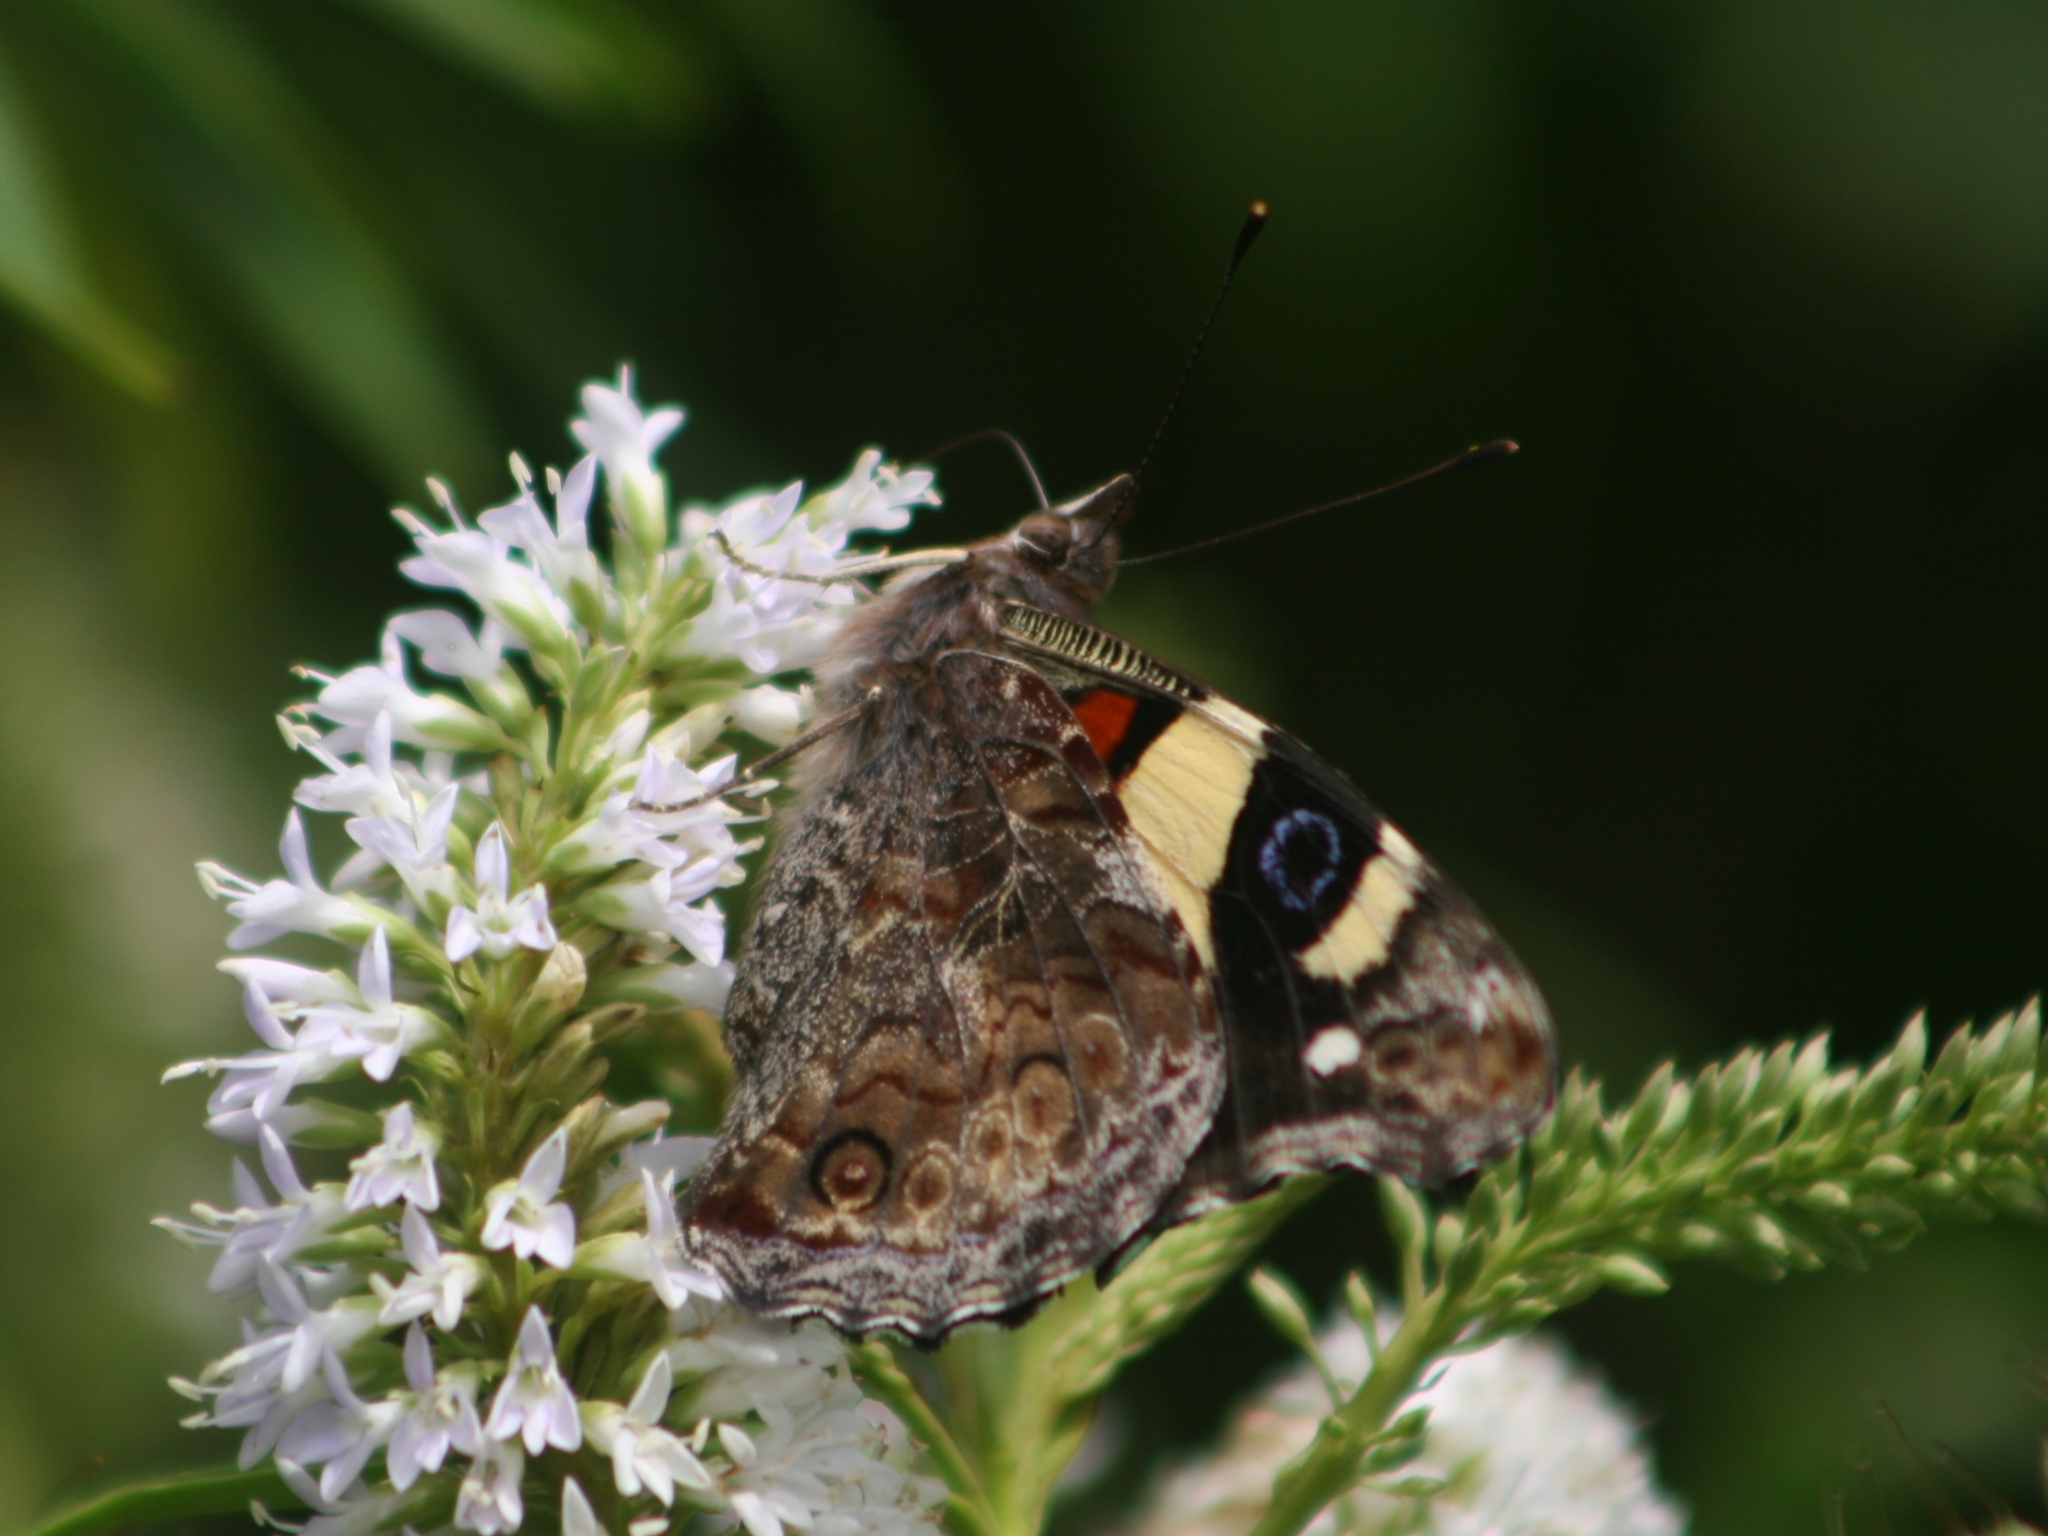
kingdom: Animalia
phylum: Arthropoda
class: Insecta
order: Lepidoptera
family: Nymphalidae
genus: Vanessa
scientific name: Vanessa itea
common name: Yellow admiral
